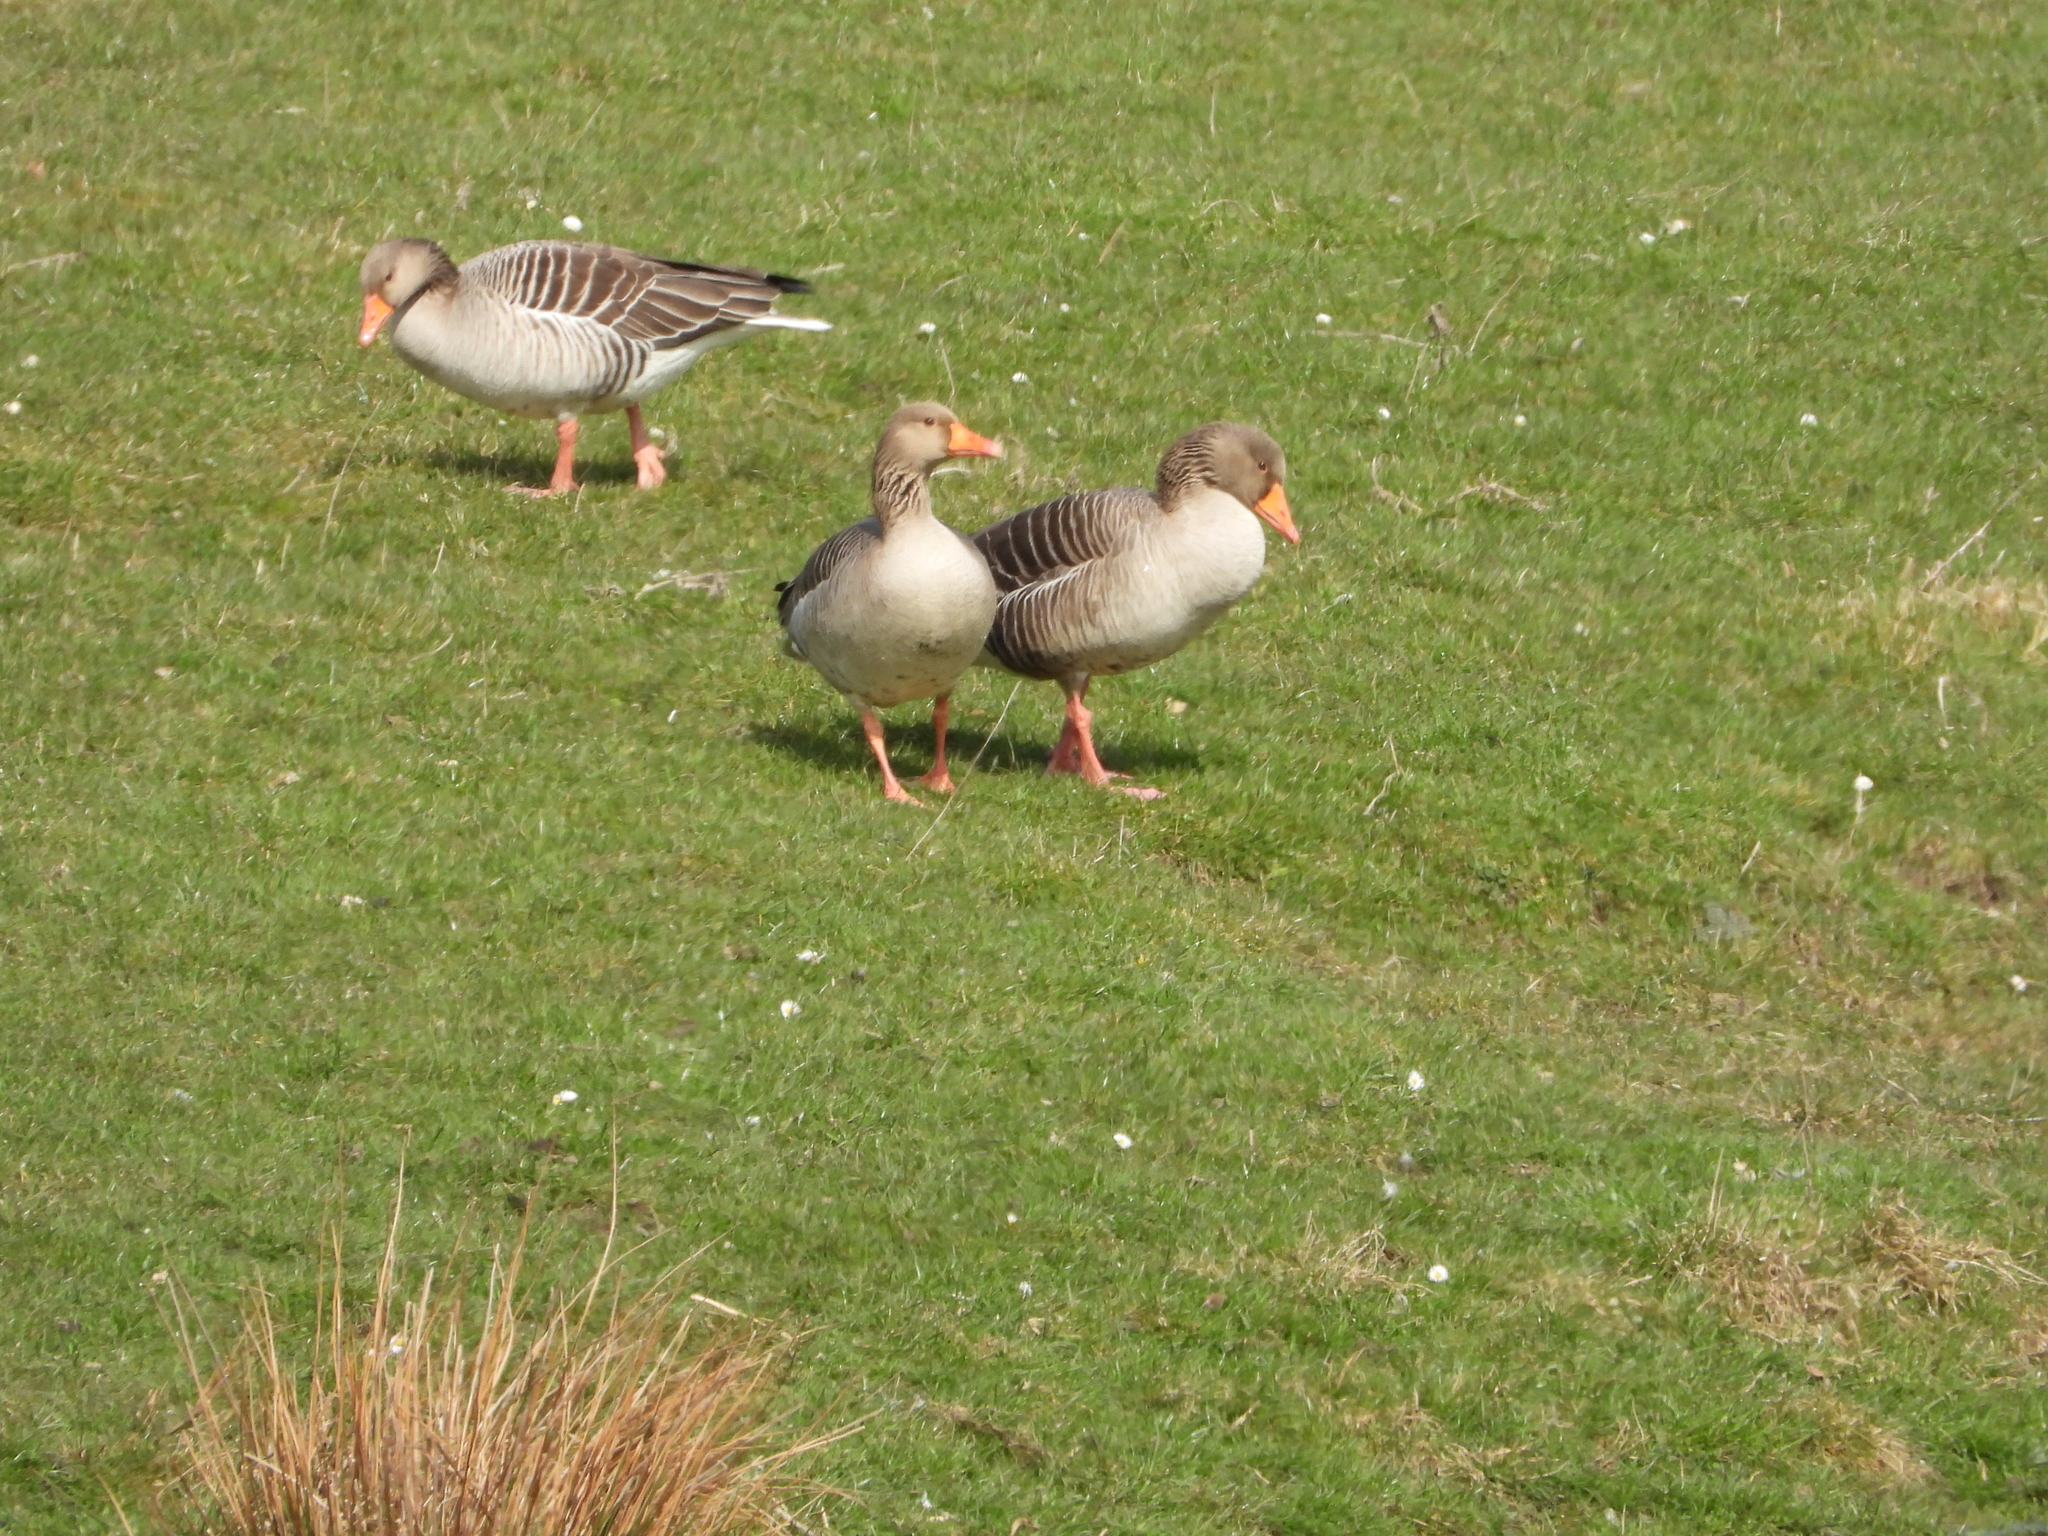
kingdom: Animalia
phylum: Chordata
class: Aves
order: Anseriformes
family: Anatidae
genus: Anser
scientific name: Anser anser
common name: Greylag goose
